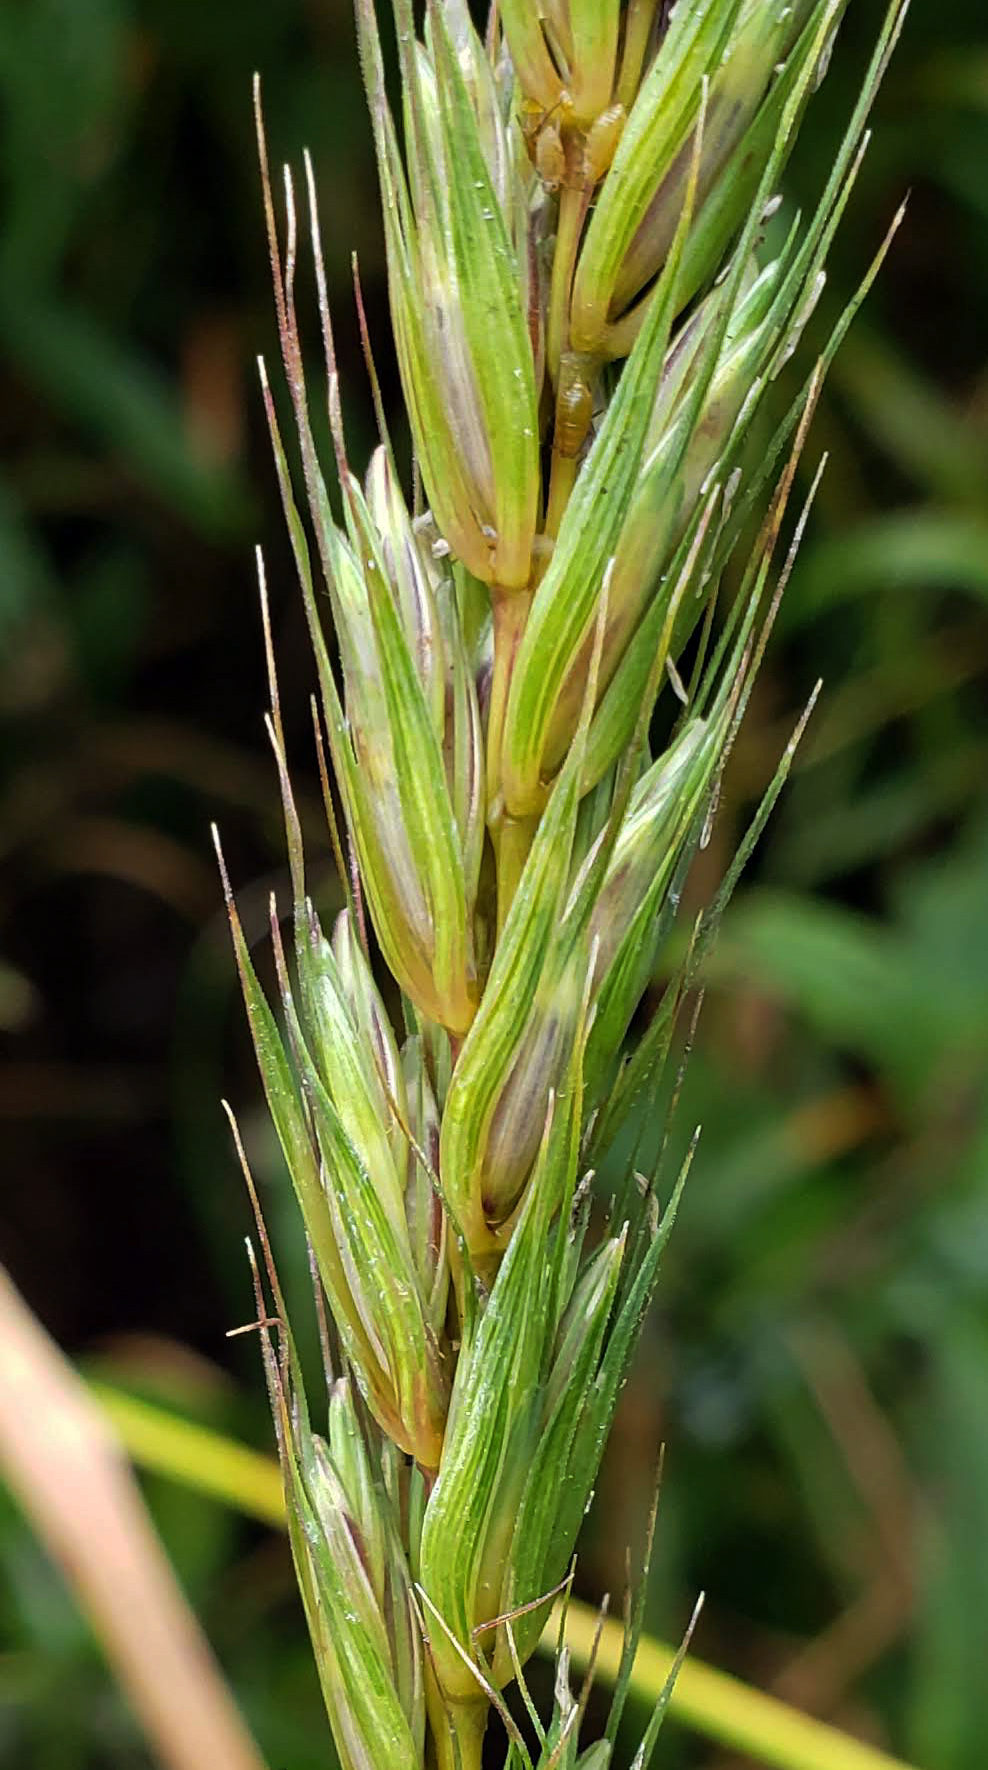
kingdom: Plantae
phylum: Tracheophyta
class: Liliopsida
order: Poales
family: Poaceae
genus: Elymus
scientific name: Elymus virginicus
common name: Common eastern wildrye
